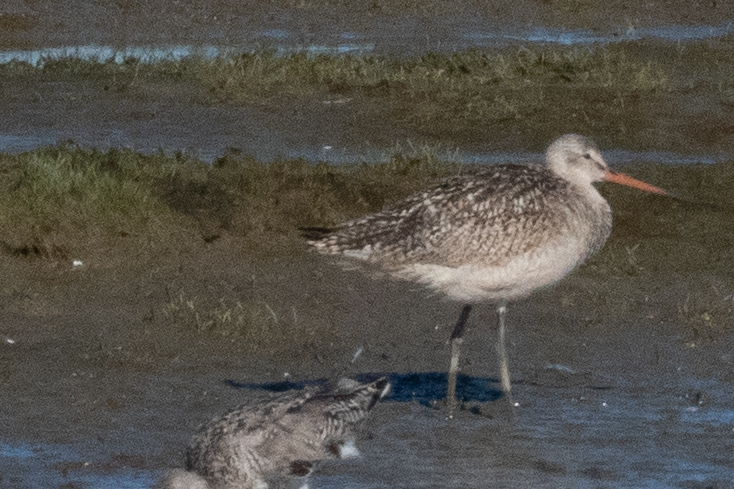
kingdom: Animalia
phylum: Chordata
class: Aves
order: Charadriiformes
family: Scolopacidae
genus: Limosa
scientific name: Limosa fedoa
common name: Marbled godwit
